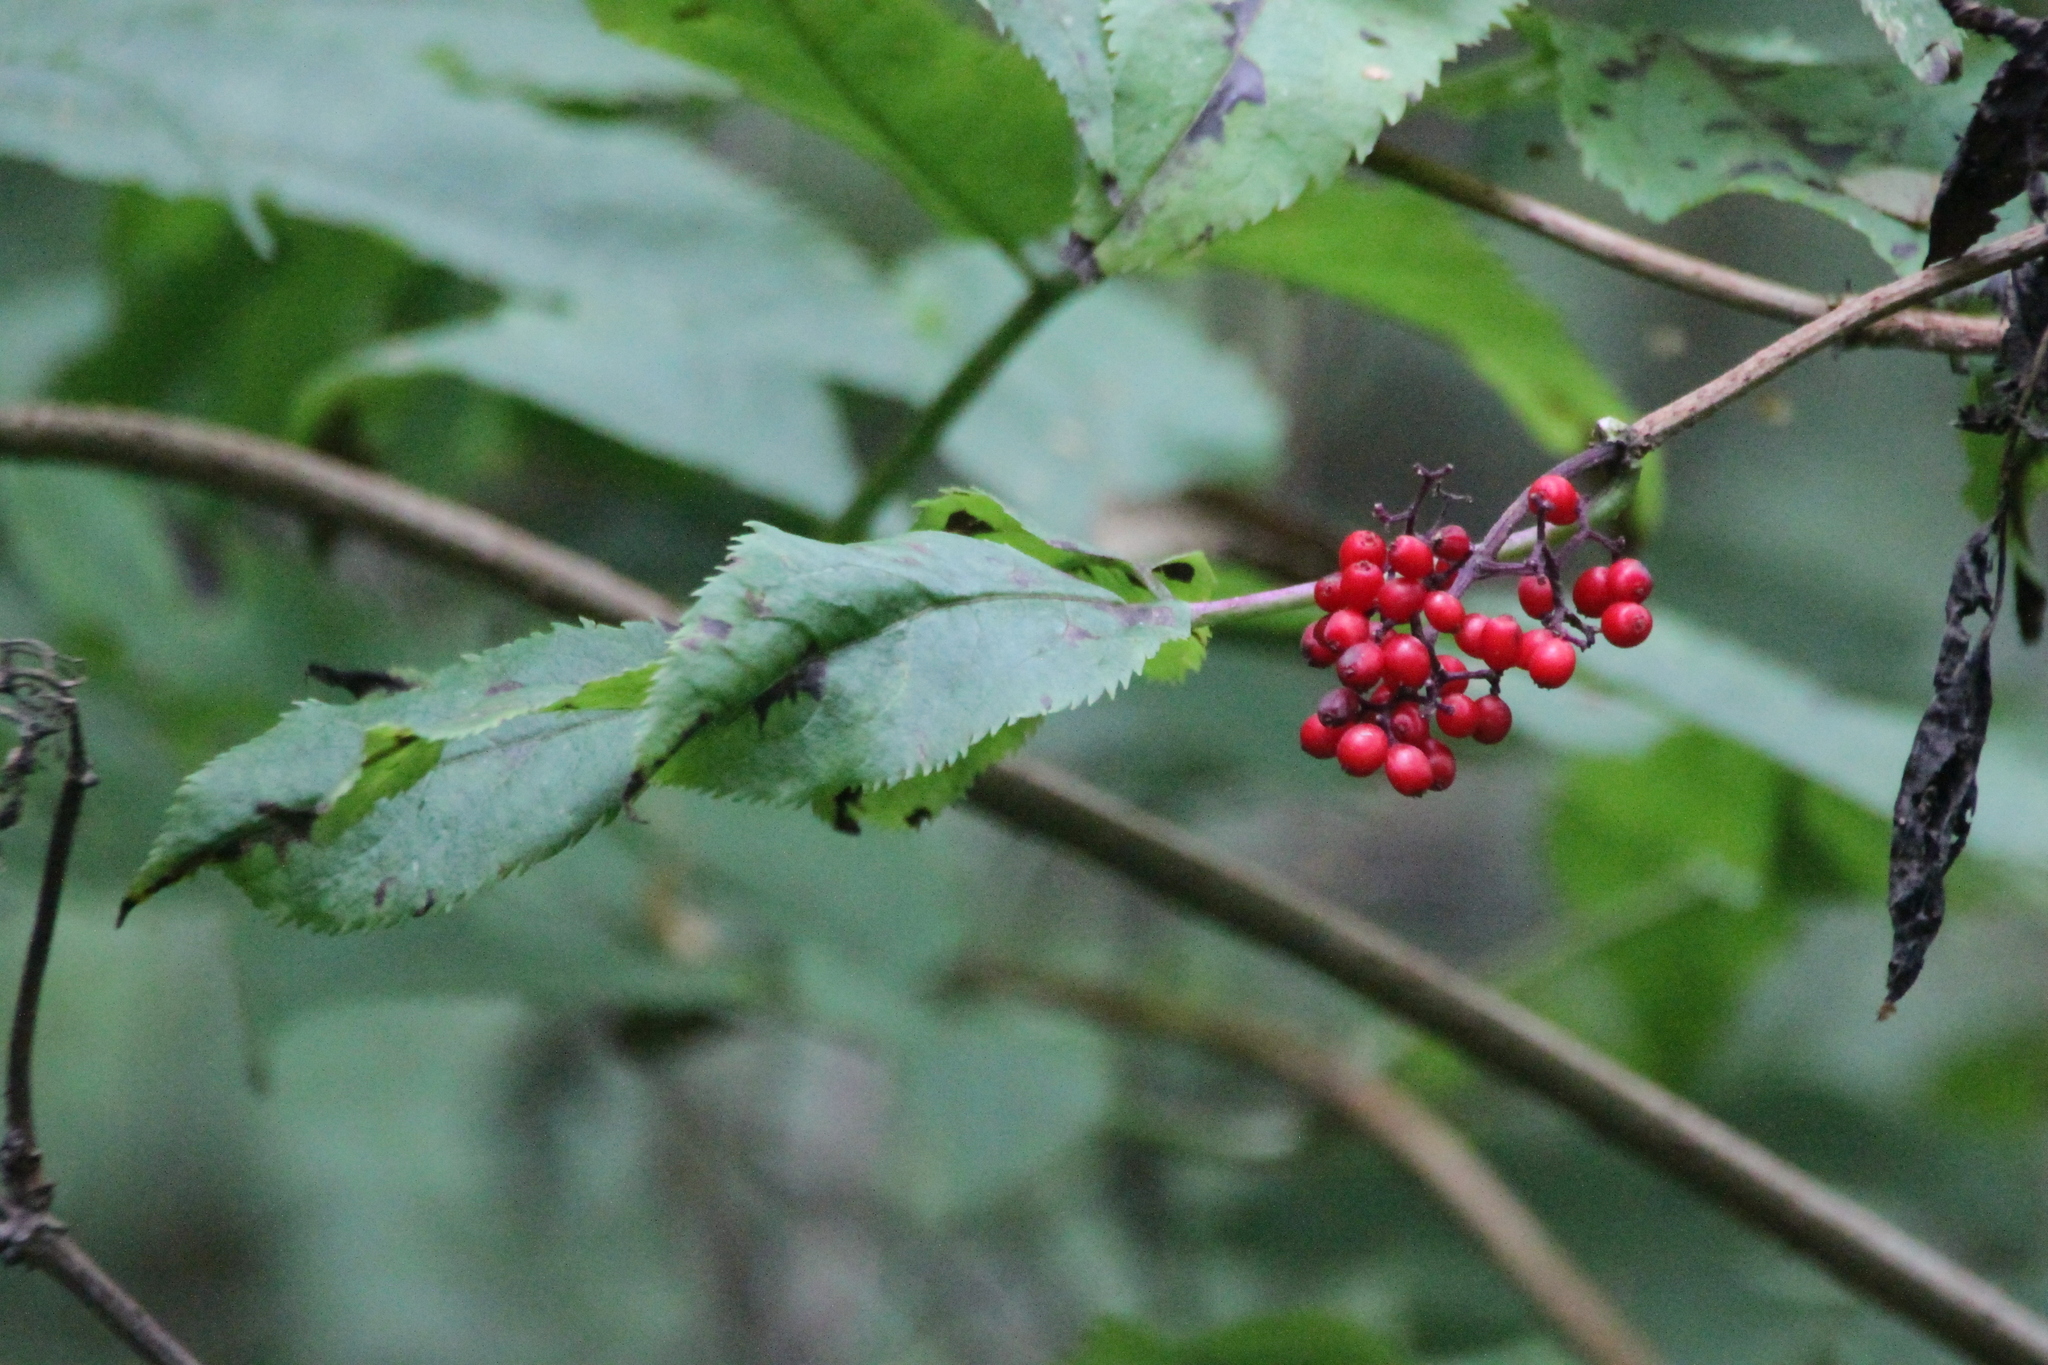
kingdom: Plantae
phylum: Tracheophyta
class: Magnoliopsida
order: Dipsacales
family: Viburnaceae
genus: Sambucus
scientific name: Sambucus racemosa
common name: Red-berried elder
